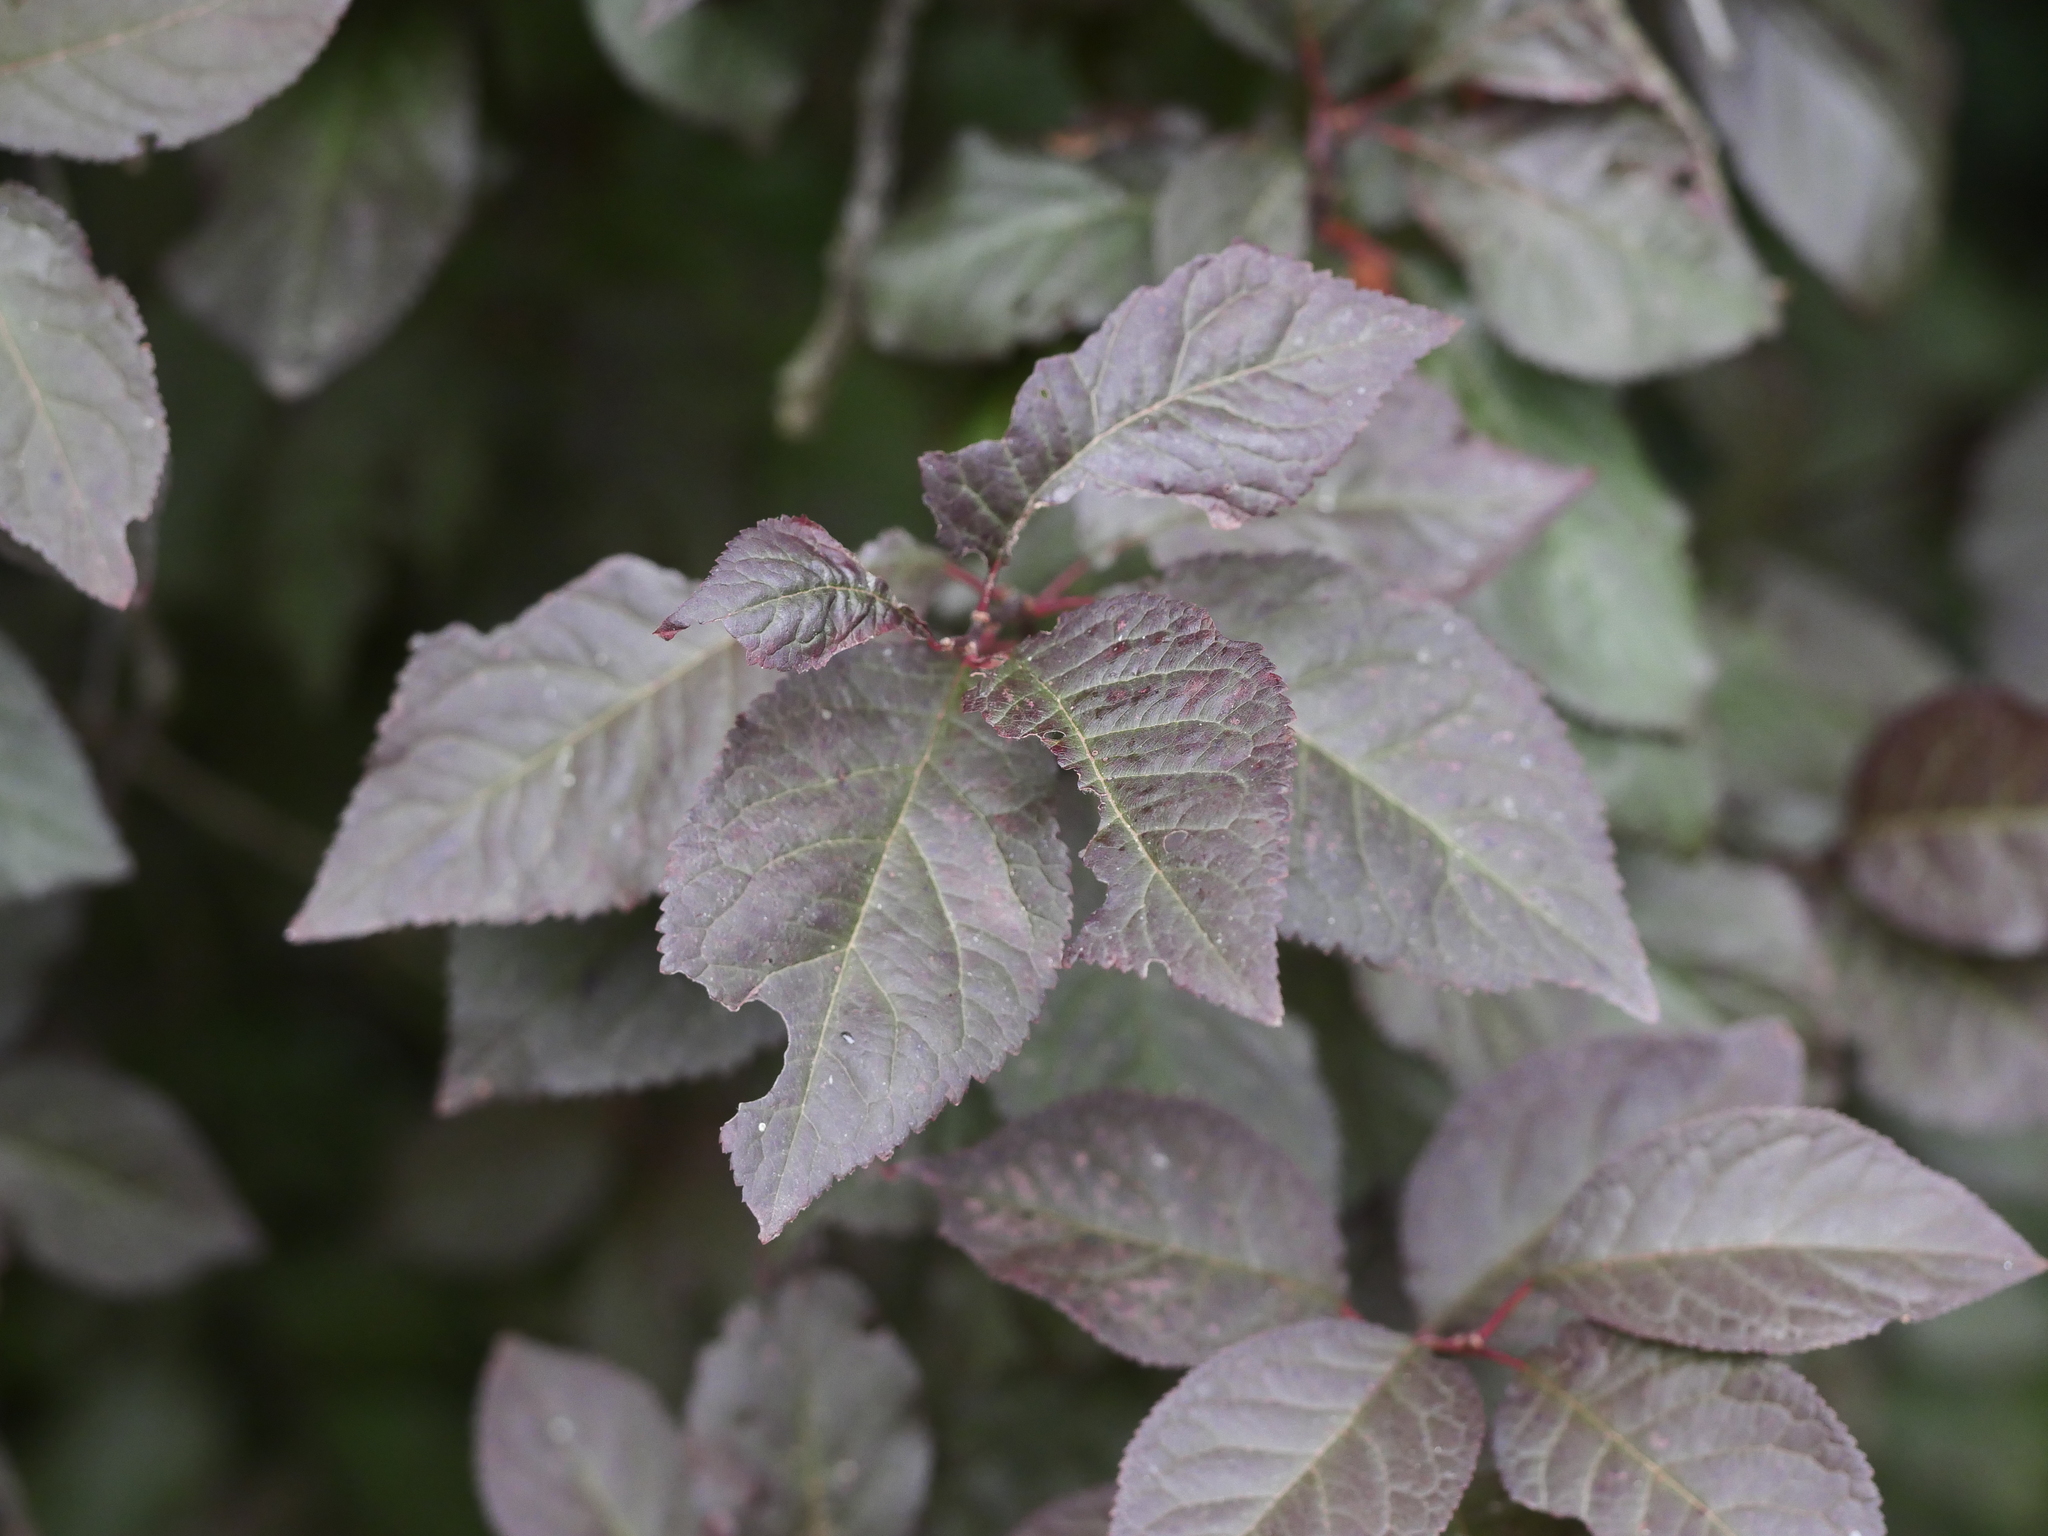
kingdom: Plantae
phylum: Tracheophyta
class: Magnoliopsida
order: Rosales
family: Rosaceae
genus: Prunus
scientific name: Prunus cerasifera
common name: Cherry plum
